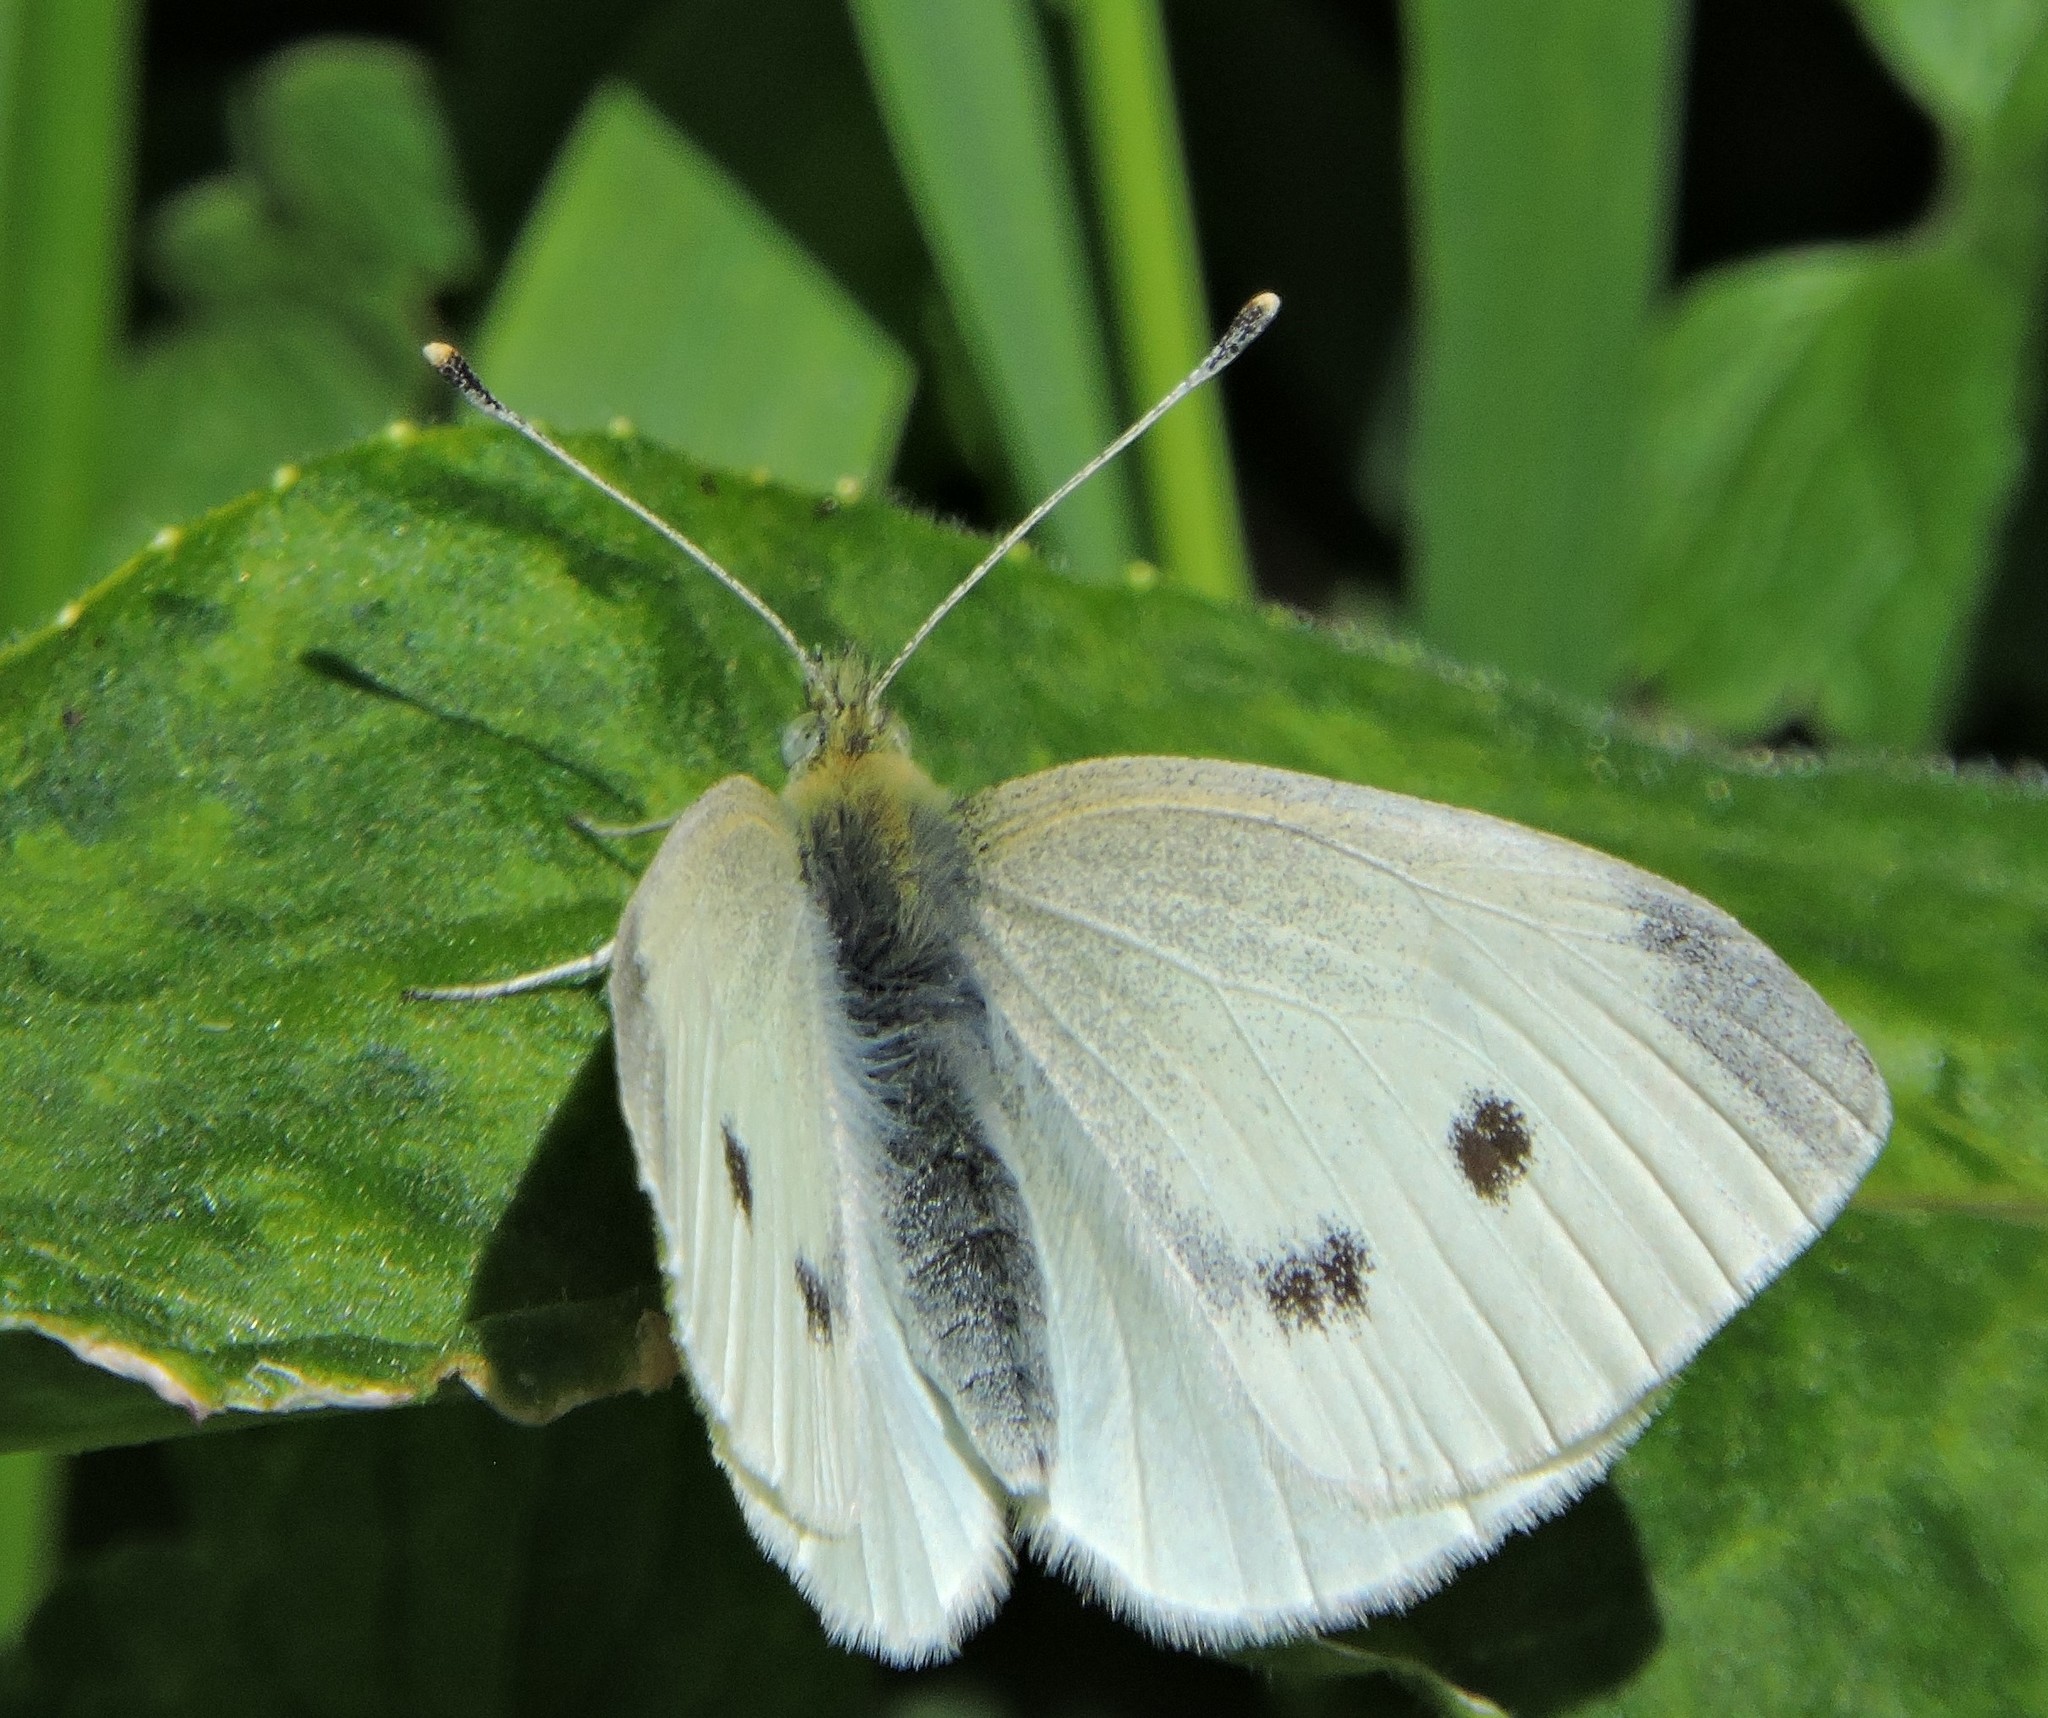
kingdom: Animalia
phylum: Arthropoda
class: Insecta
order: Lepidoptera
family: Pieridae
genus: Pieris
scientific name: Pieris rapae
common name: Small white
